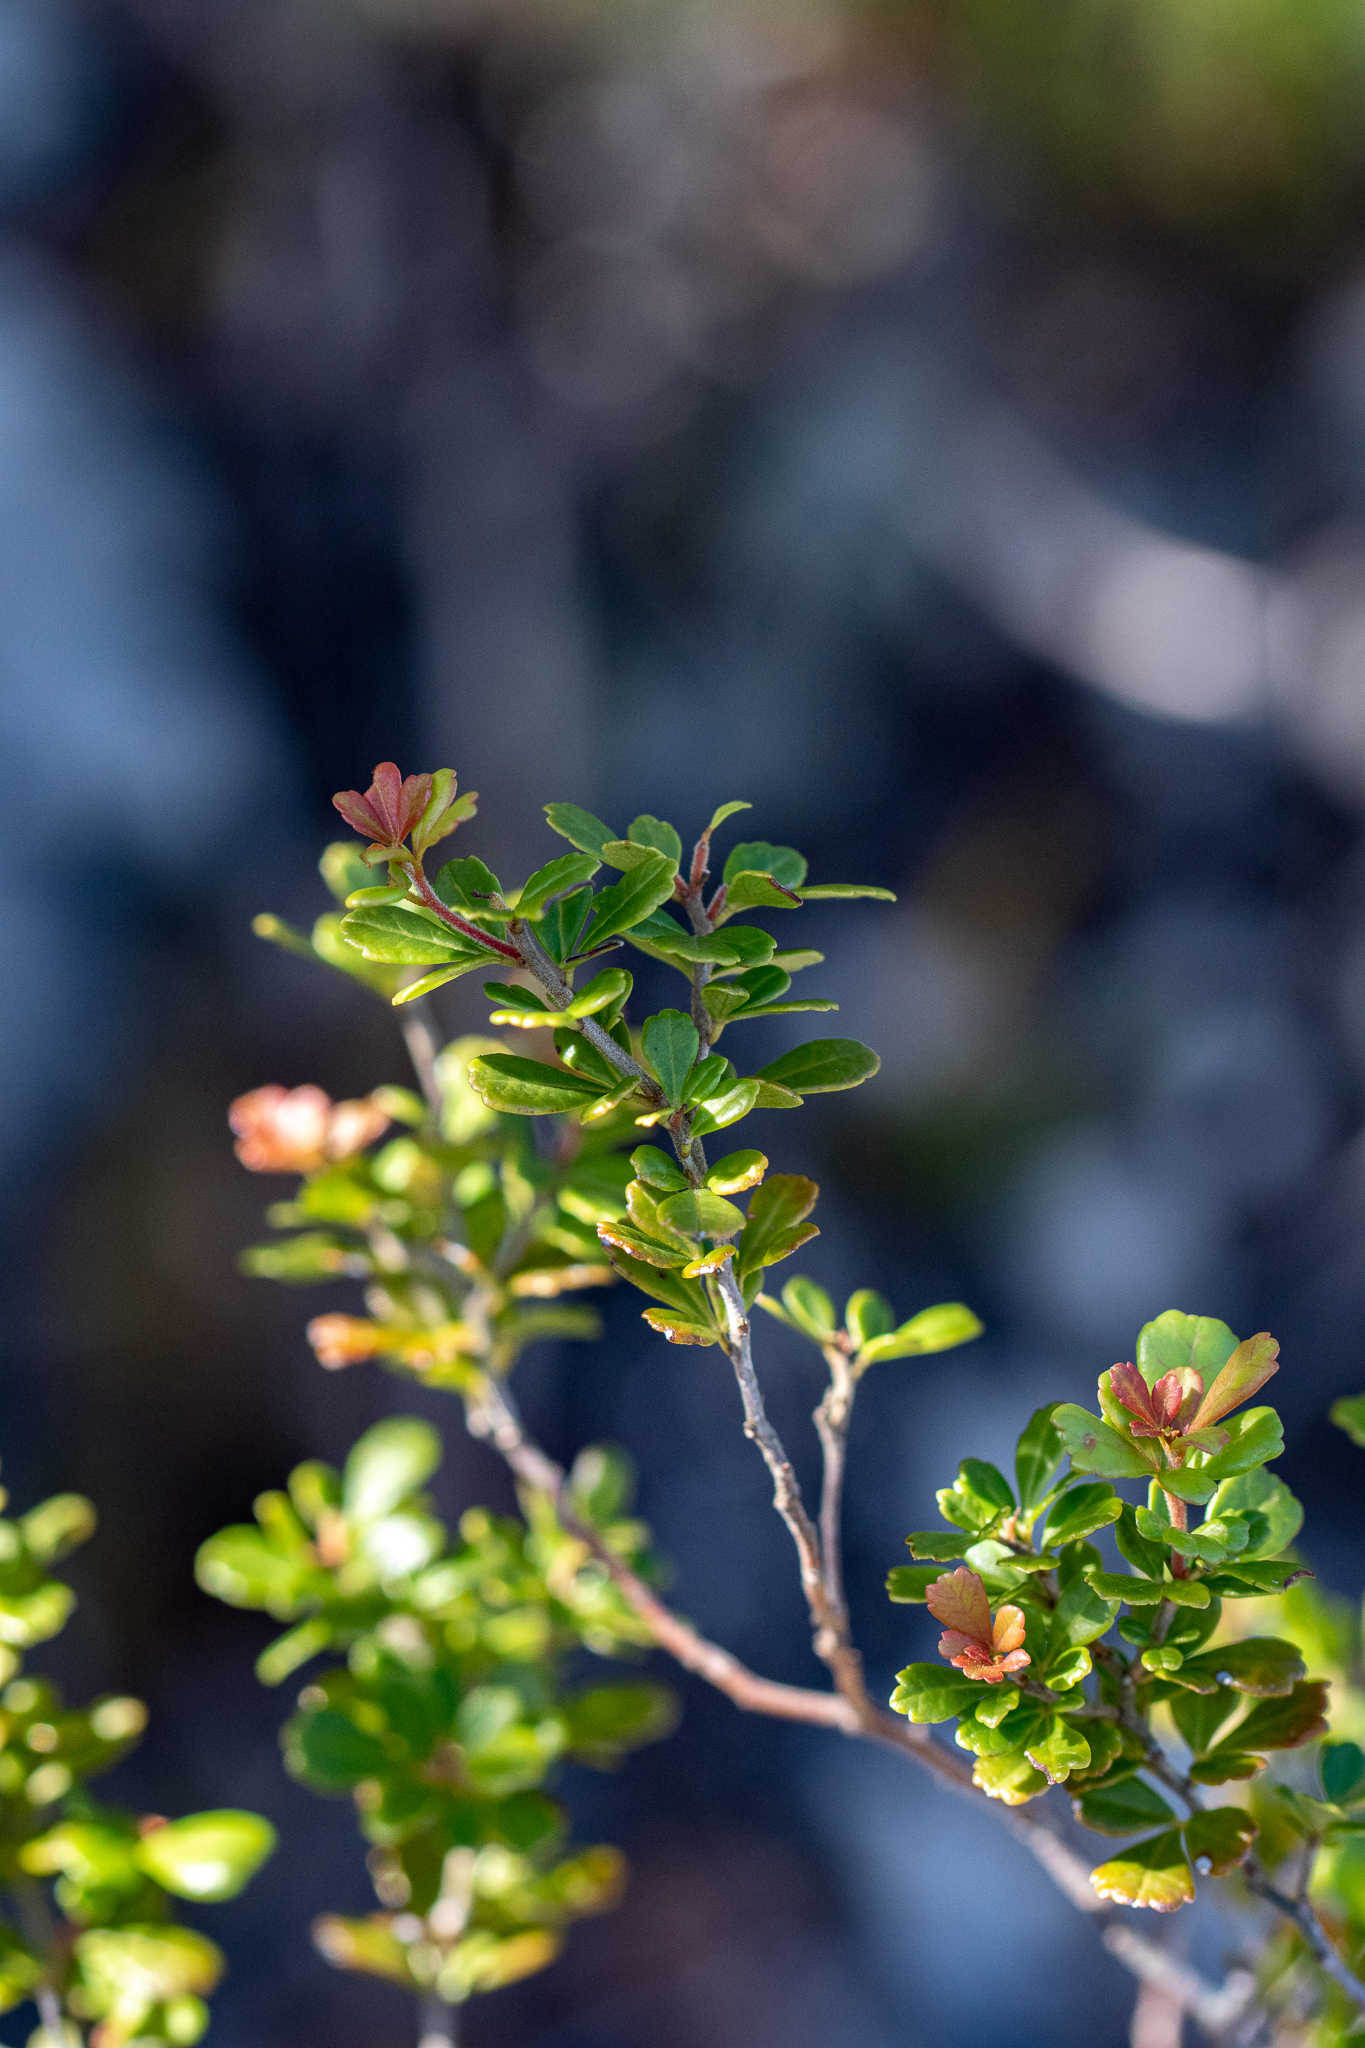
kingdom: Plantae
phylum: Tracheophyta
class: Magnoliopsida
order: Sapindales
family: Anacardiaceae
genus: Searsia
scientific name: Searsia crenata
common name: Crowberry
